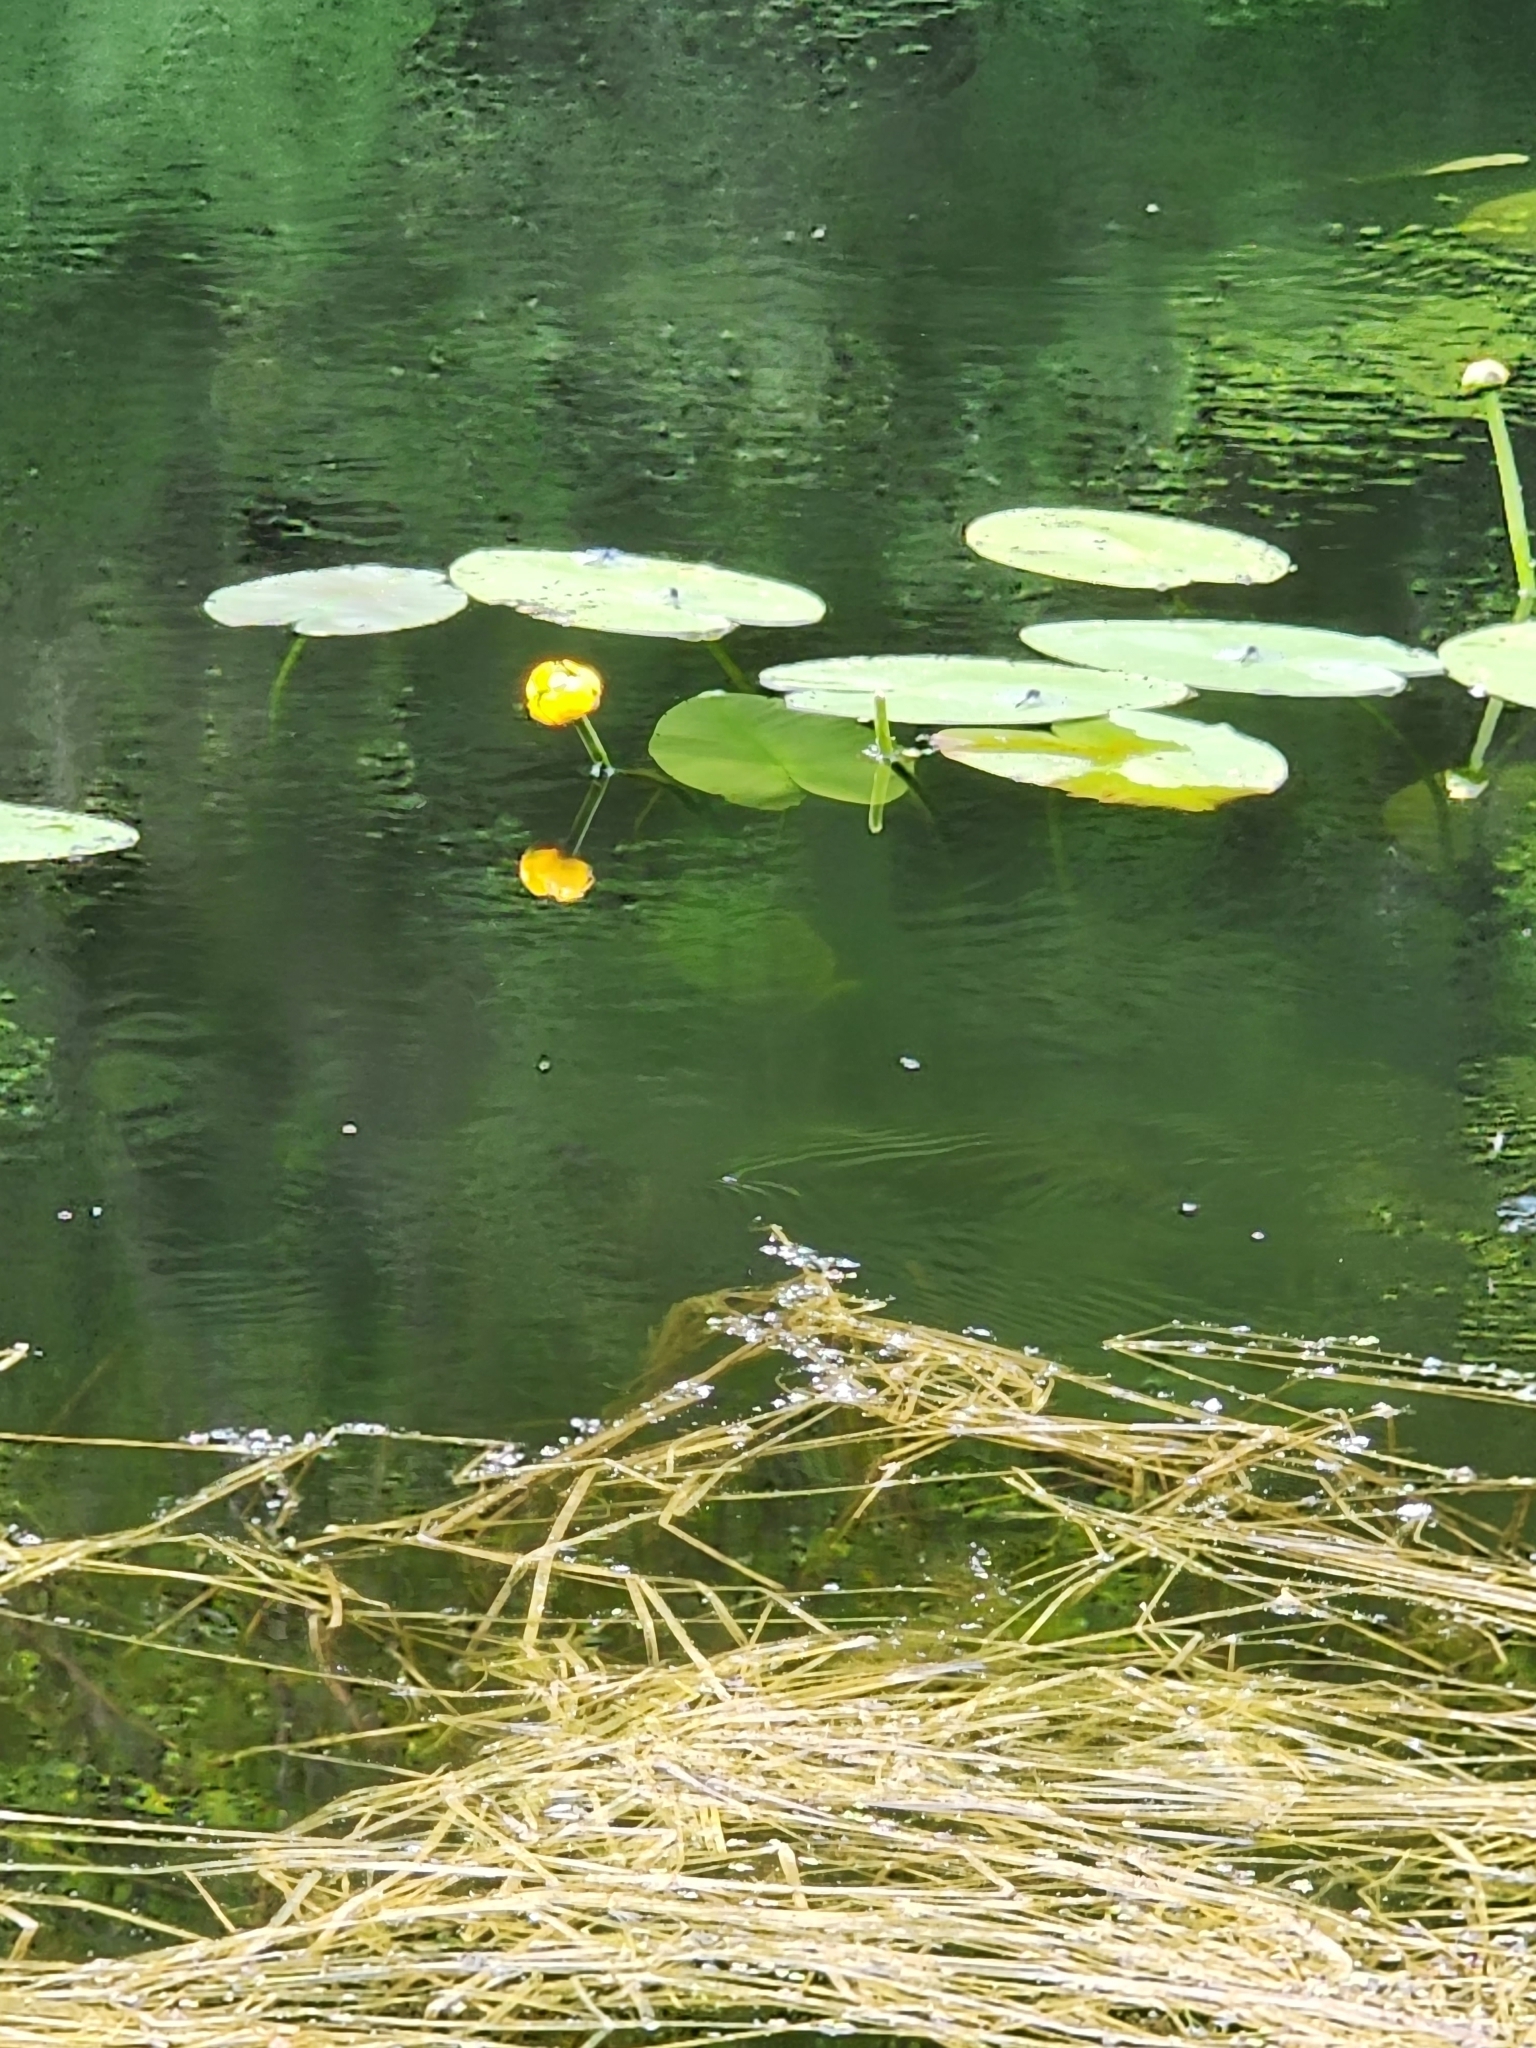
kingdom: Plantae
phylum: Tracheophyta
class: Magnoliopsida
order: Nymphaeales
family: Nymphaeaceae
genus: Nuphar
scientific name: Nuphar variegata
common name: Beaver-root
